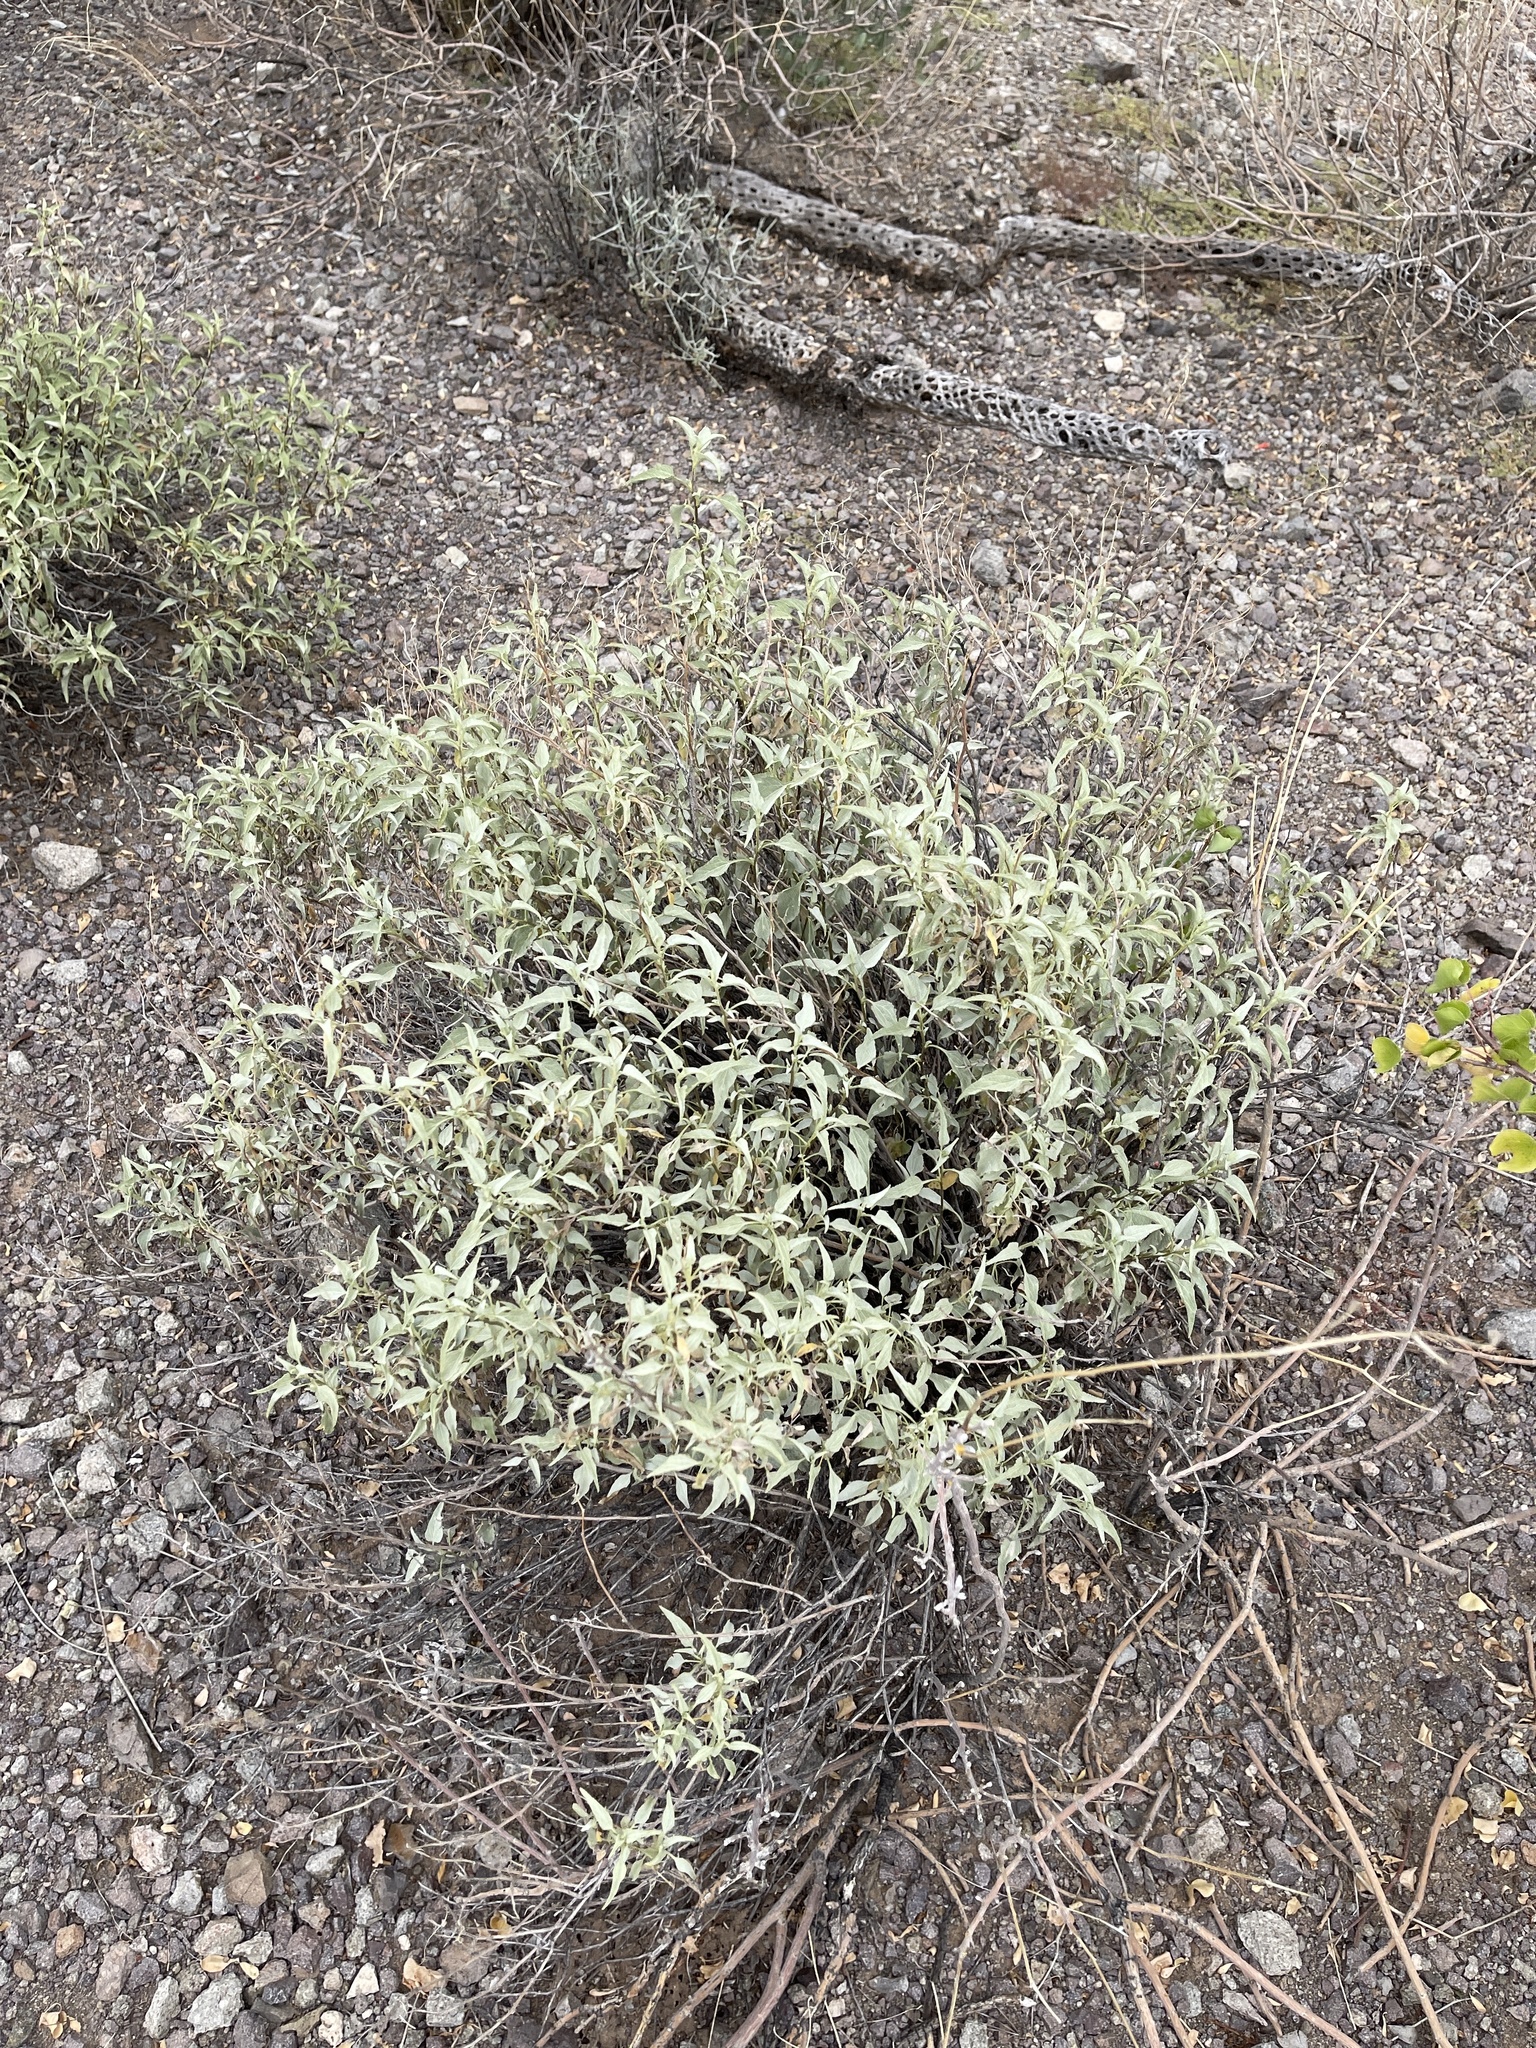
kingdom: Plantae
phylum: Tracheophyta
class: Magnoliopsida
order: Asterales
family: Asteraceae
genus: Ambrosia
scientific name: Ambrosia deltoidea
